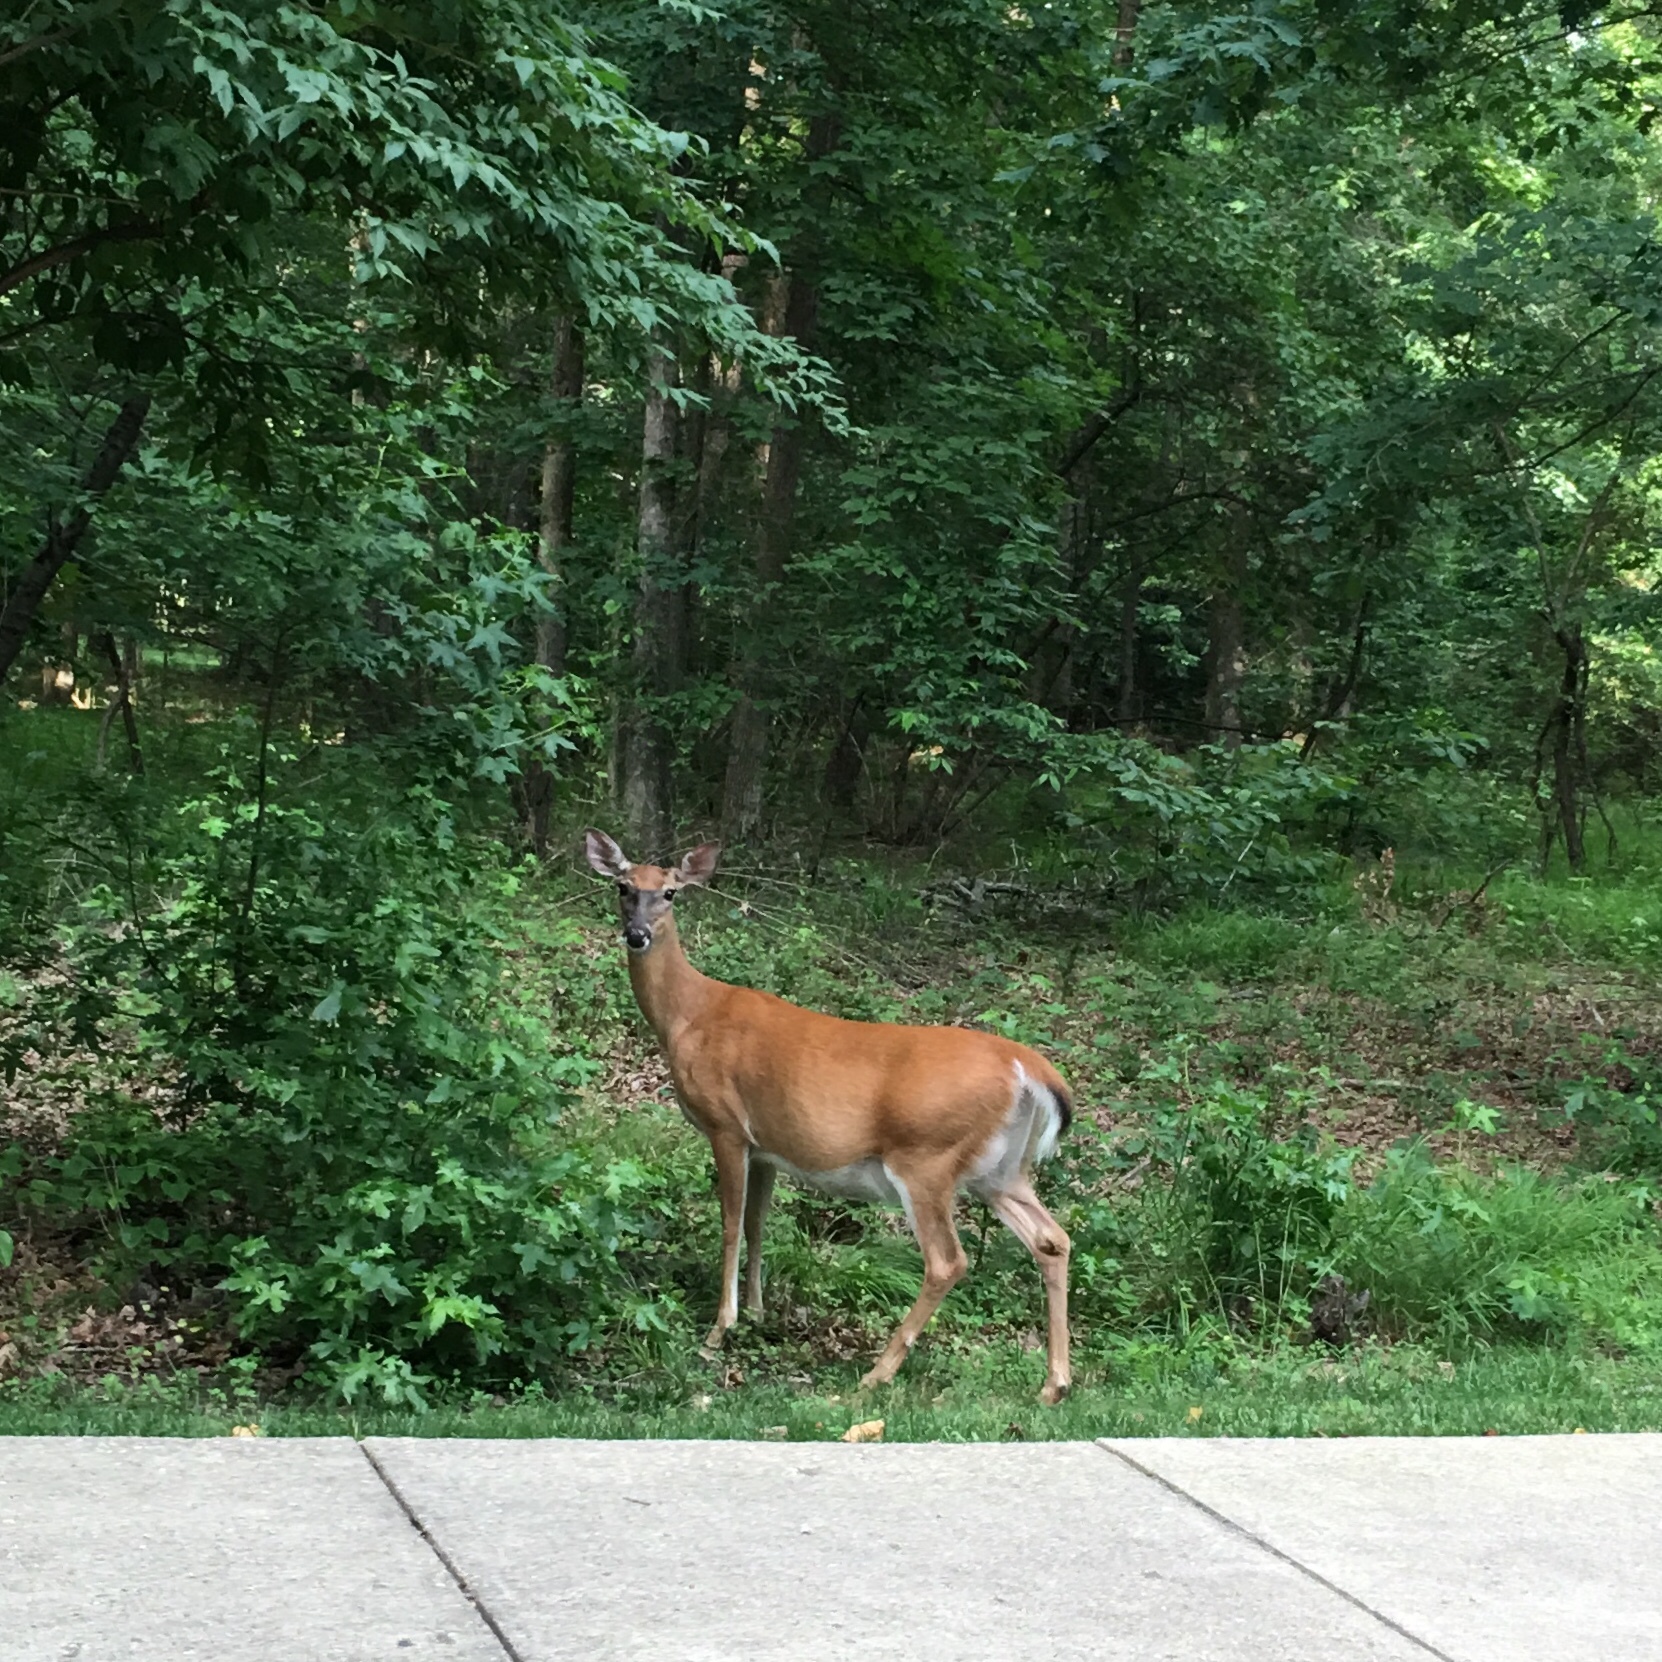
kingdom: Animalia
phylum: Chordata
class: Mammalia
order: Artiodactyla
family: Cervidae
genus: Odocoileus
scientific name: Odocoileus virginianus
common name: White-tailed deer
